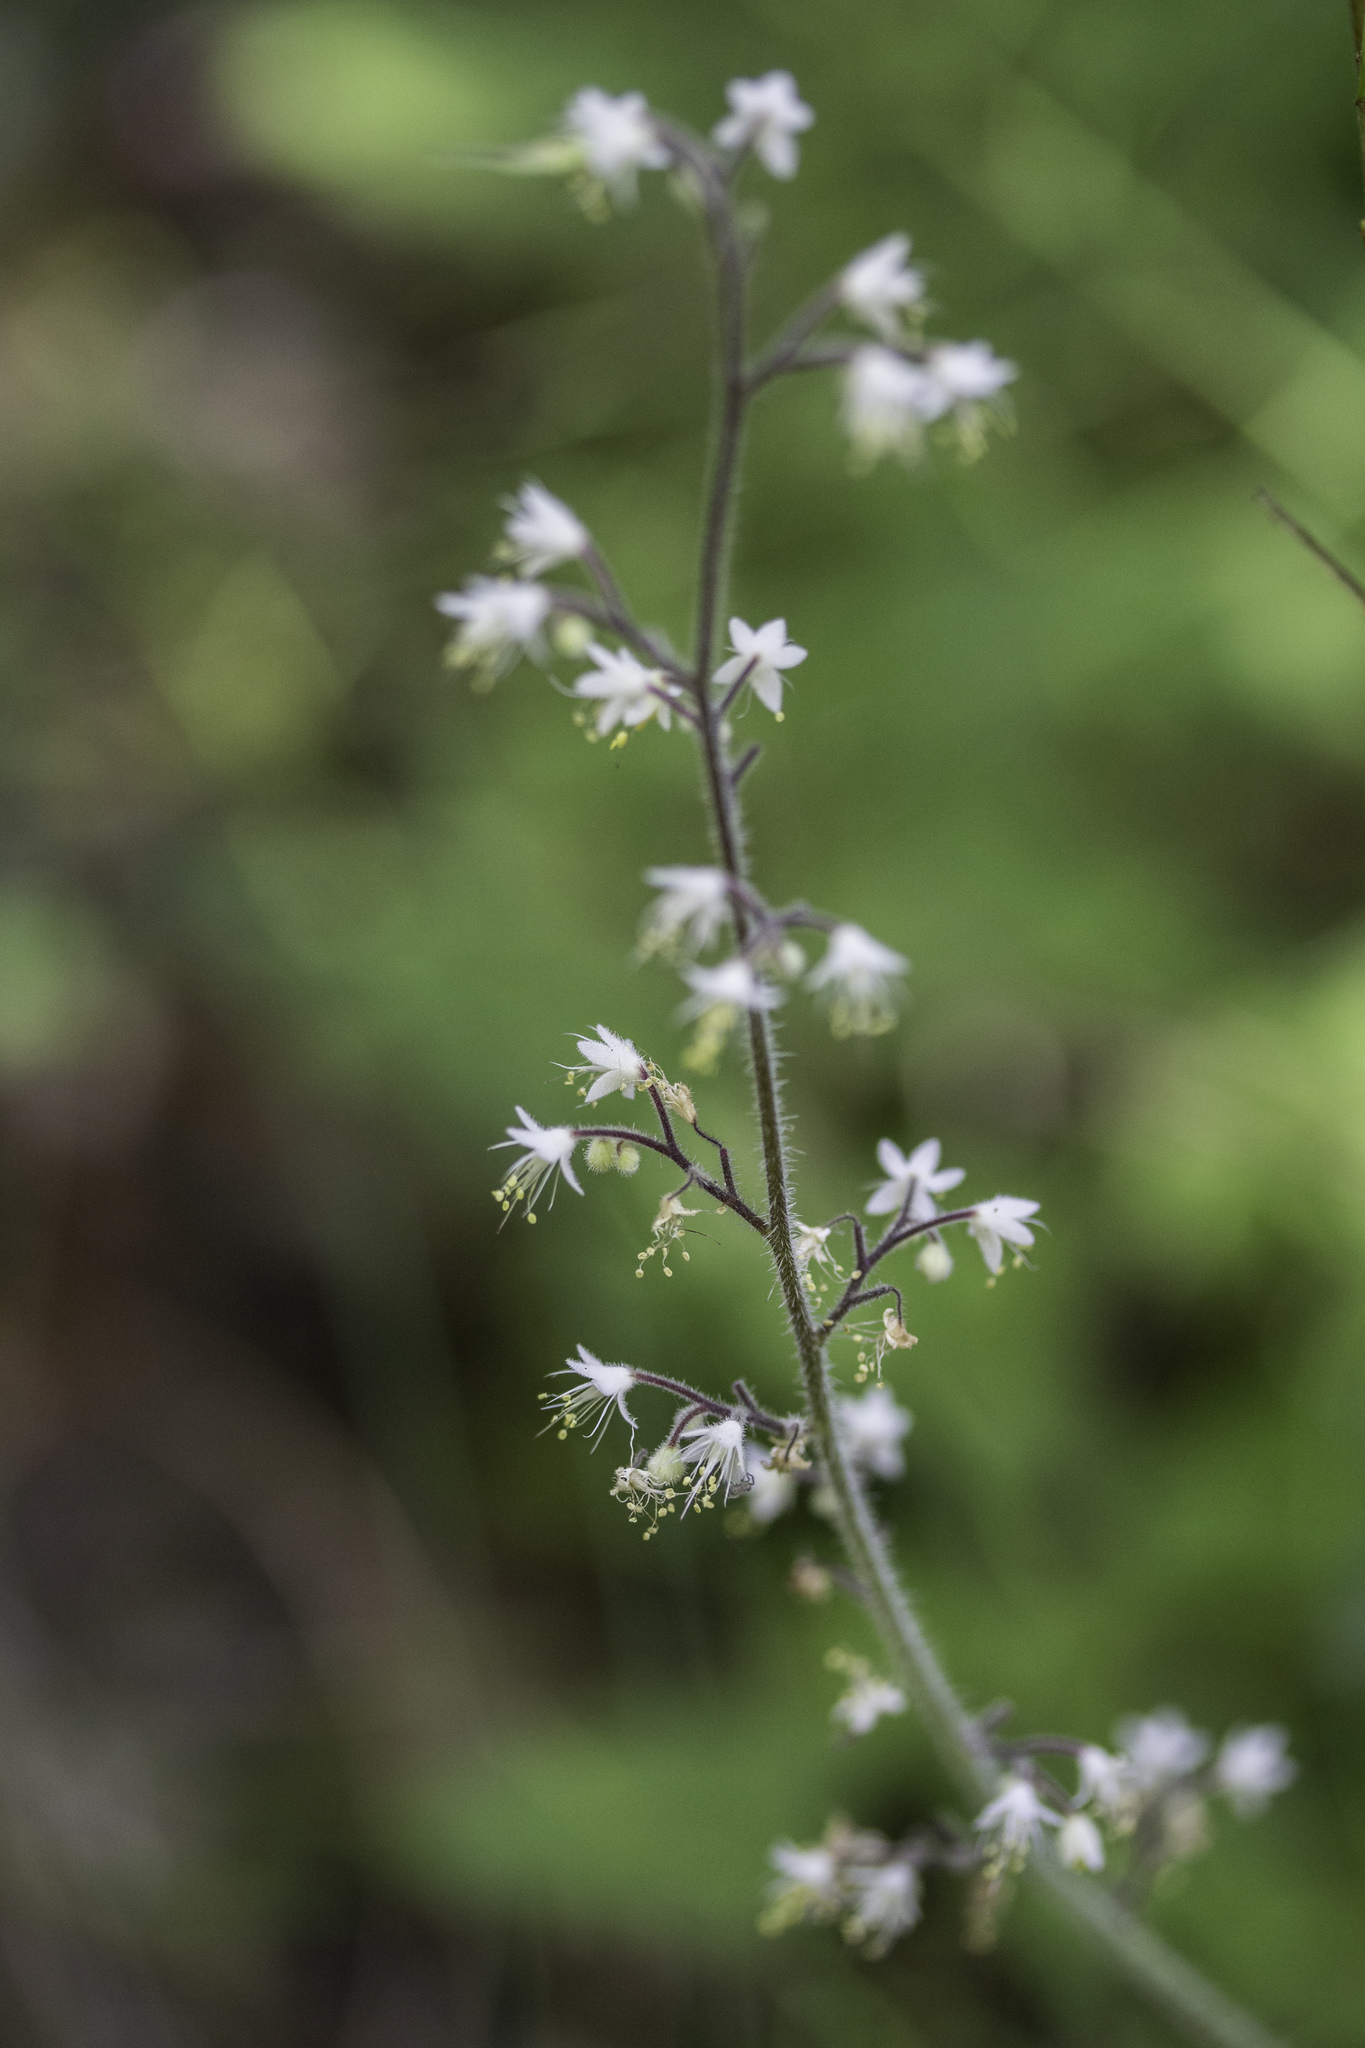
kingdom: Plantae
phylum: Tracheophyta
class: Magnoliopsida
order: Saxifragales
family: Saxifragaceae
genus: Tiarella
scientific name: Tiarella trifoliata
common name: Sugar-scoop
